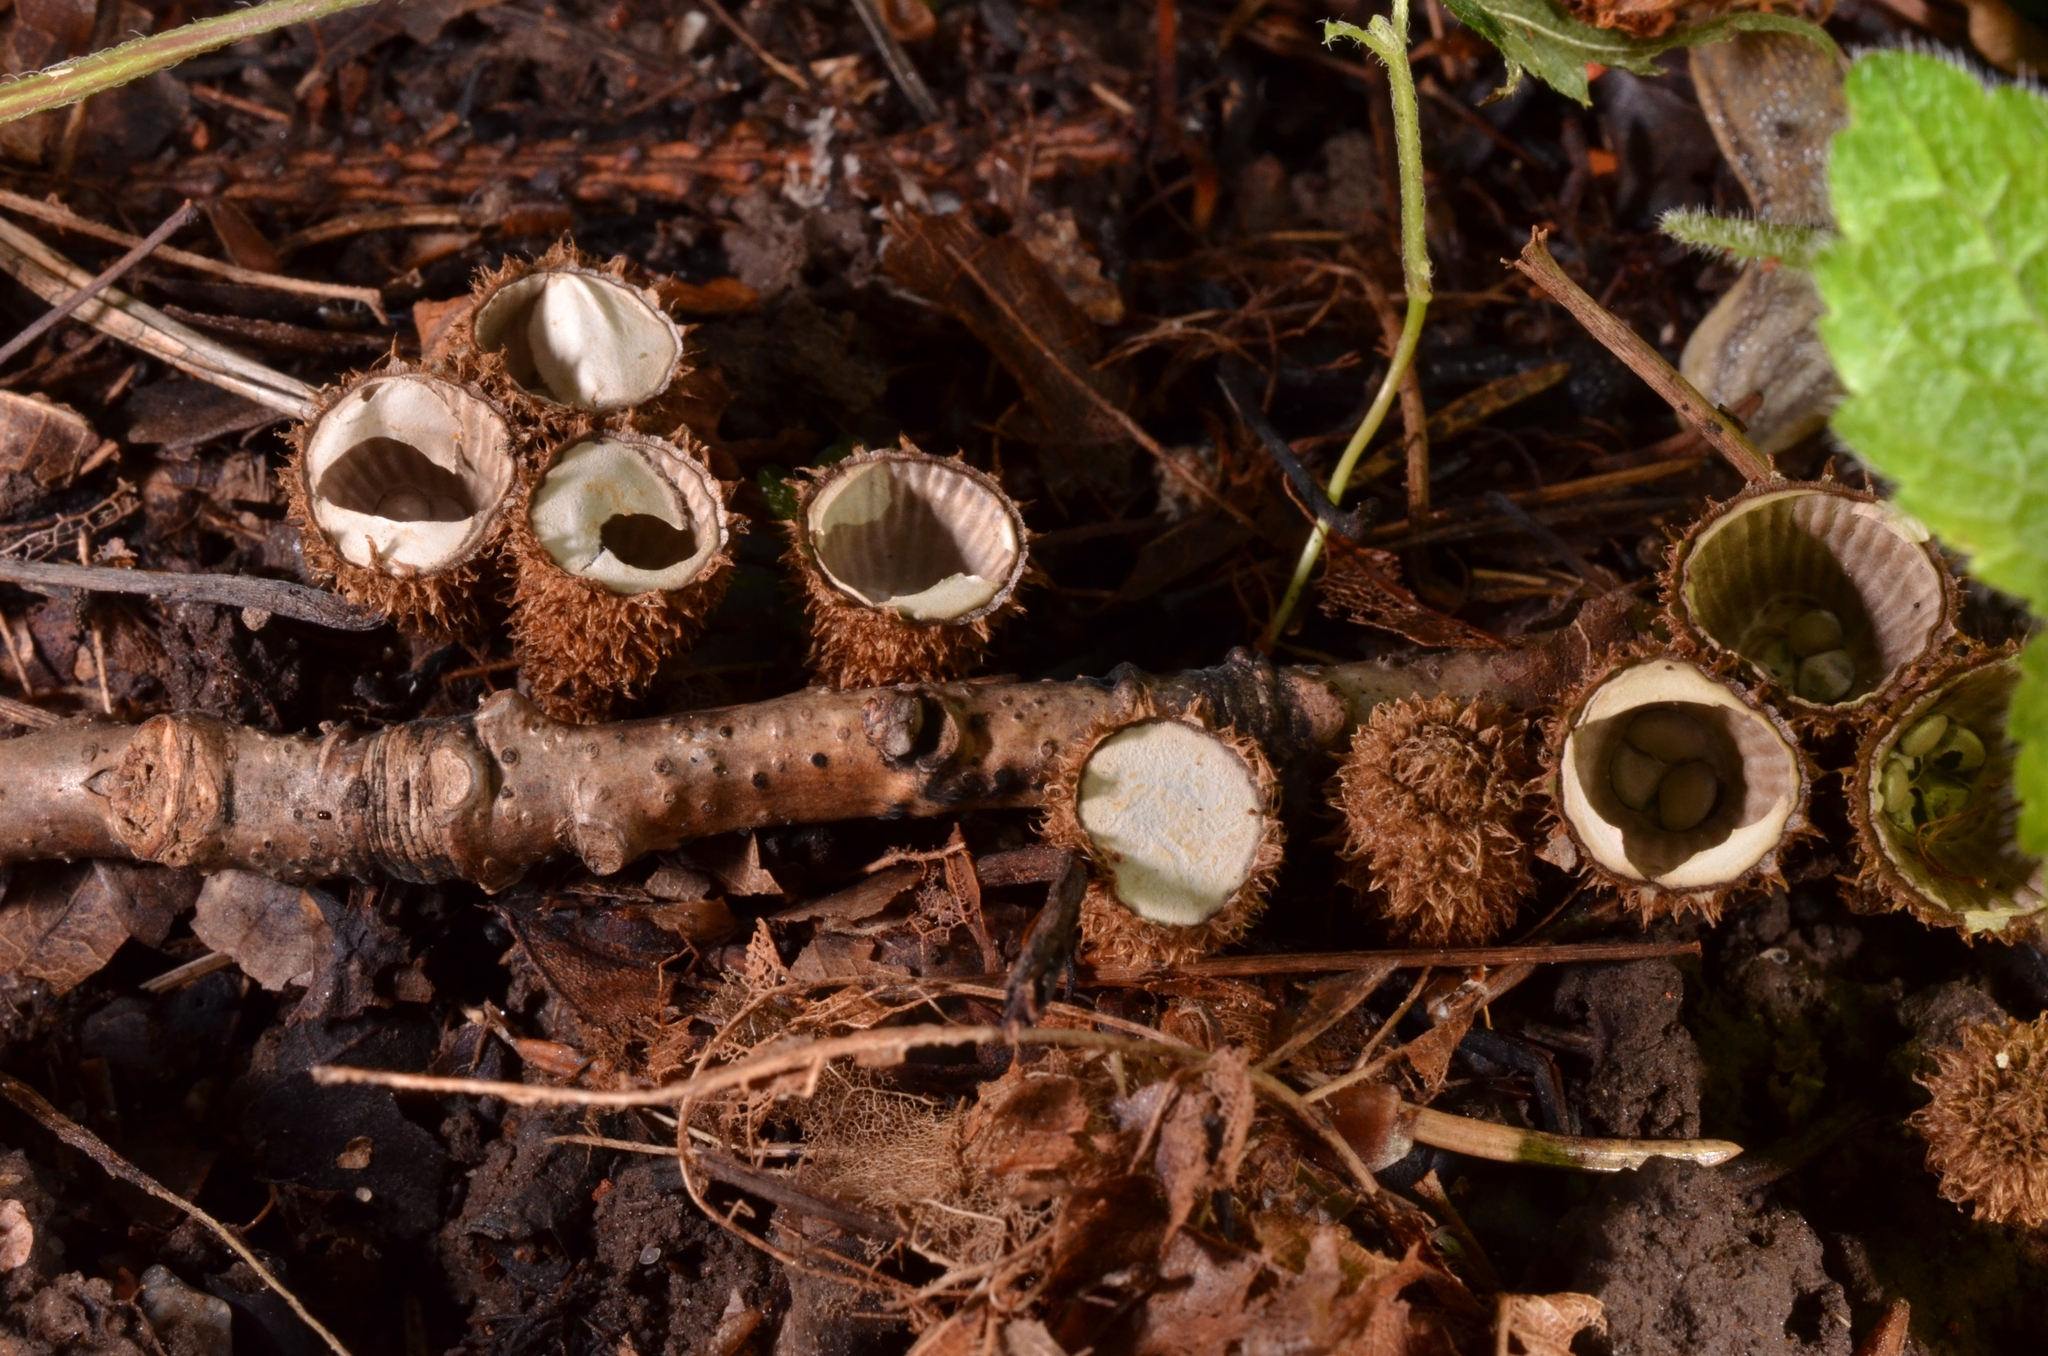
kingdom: Fungi
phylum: Basidiomycota
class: Agaricomycetes
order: Agaricales
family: Agaricaceae
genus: Cyathus
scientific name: Cyathus striatus
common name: Fluted bird's nest
